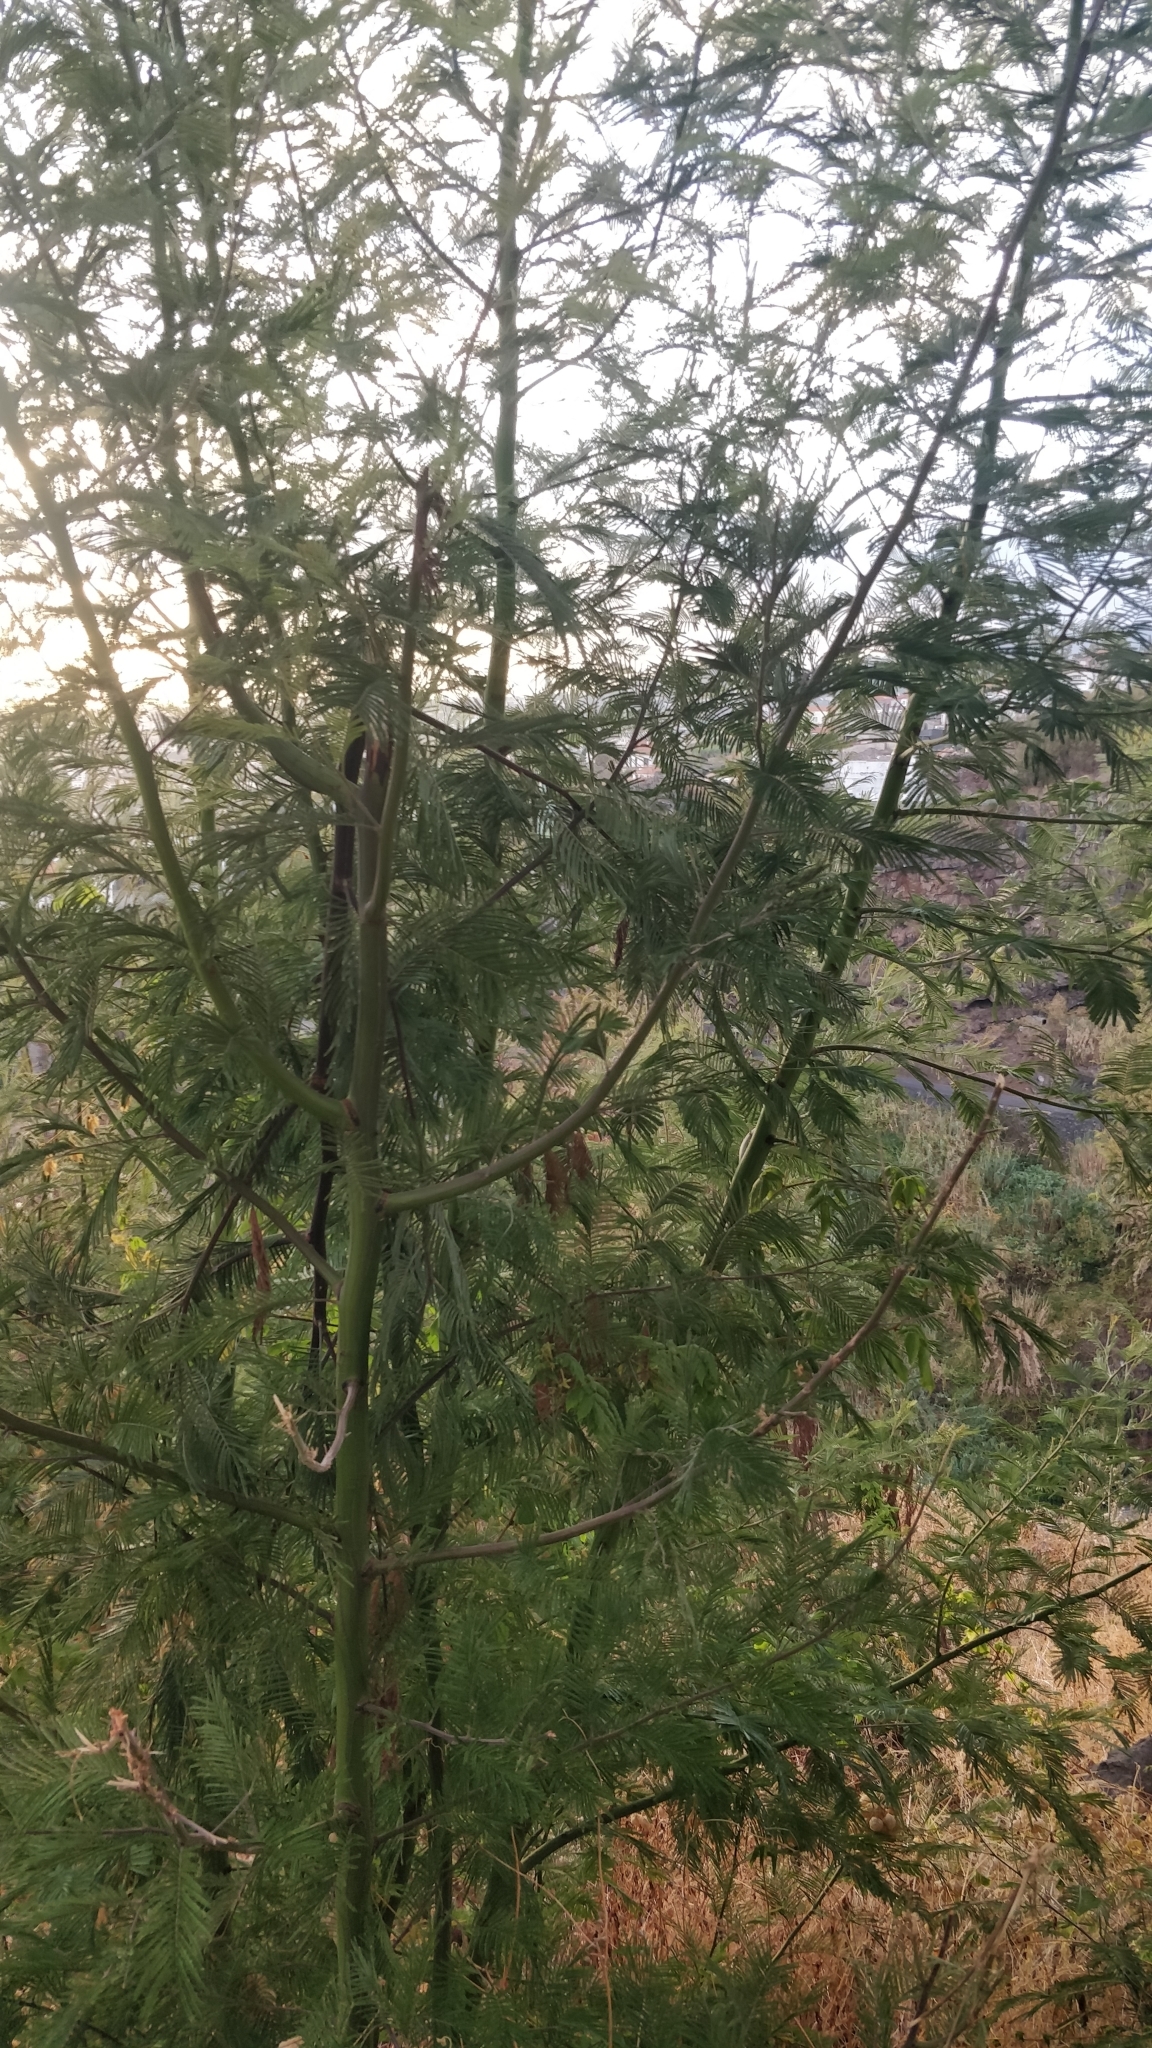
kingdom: Plantae
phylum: Tracheophyta
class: Magnoliopsida
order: Fabales
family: Fabaceae
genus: Acacia
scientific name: Acacia mearnsii
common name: Black wattle
